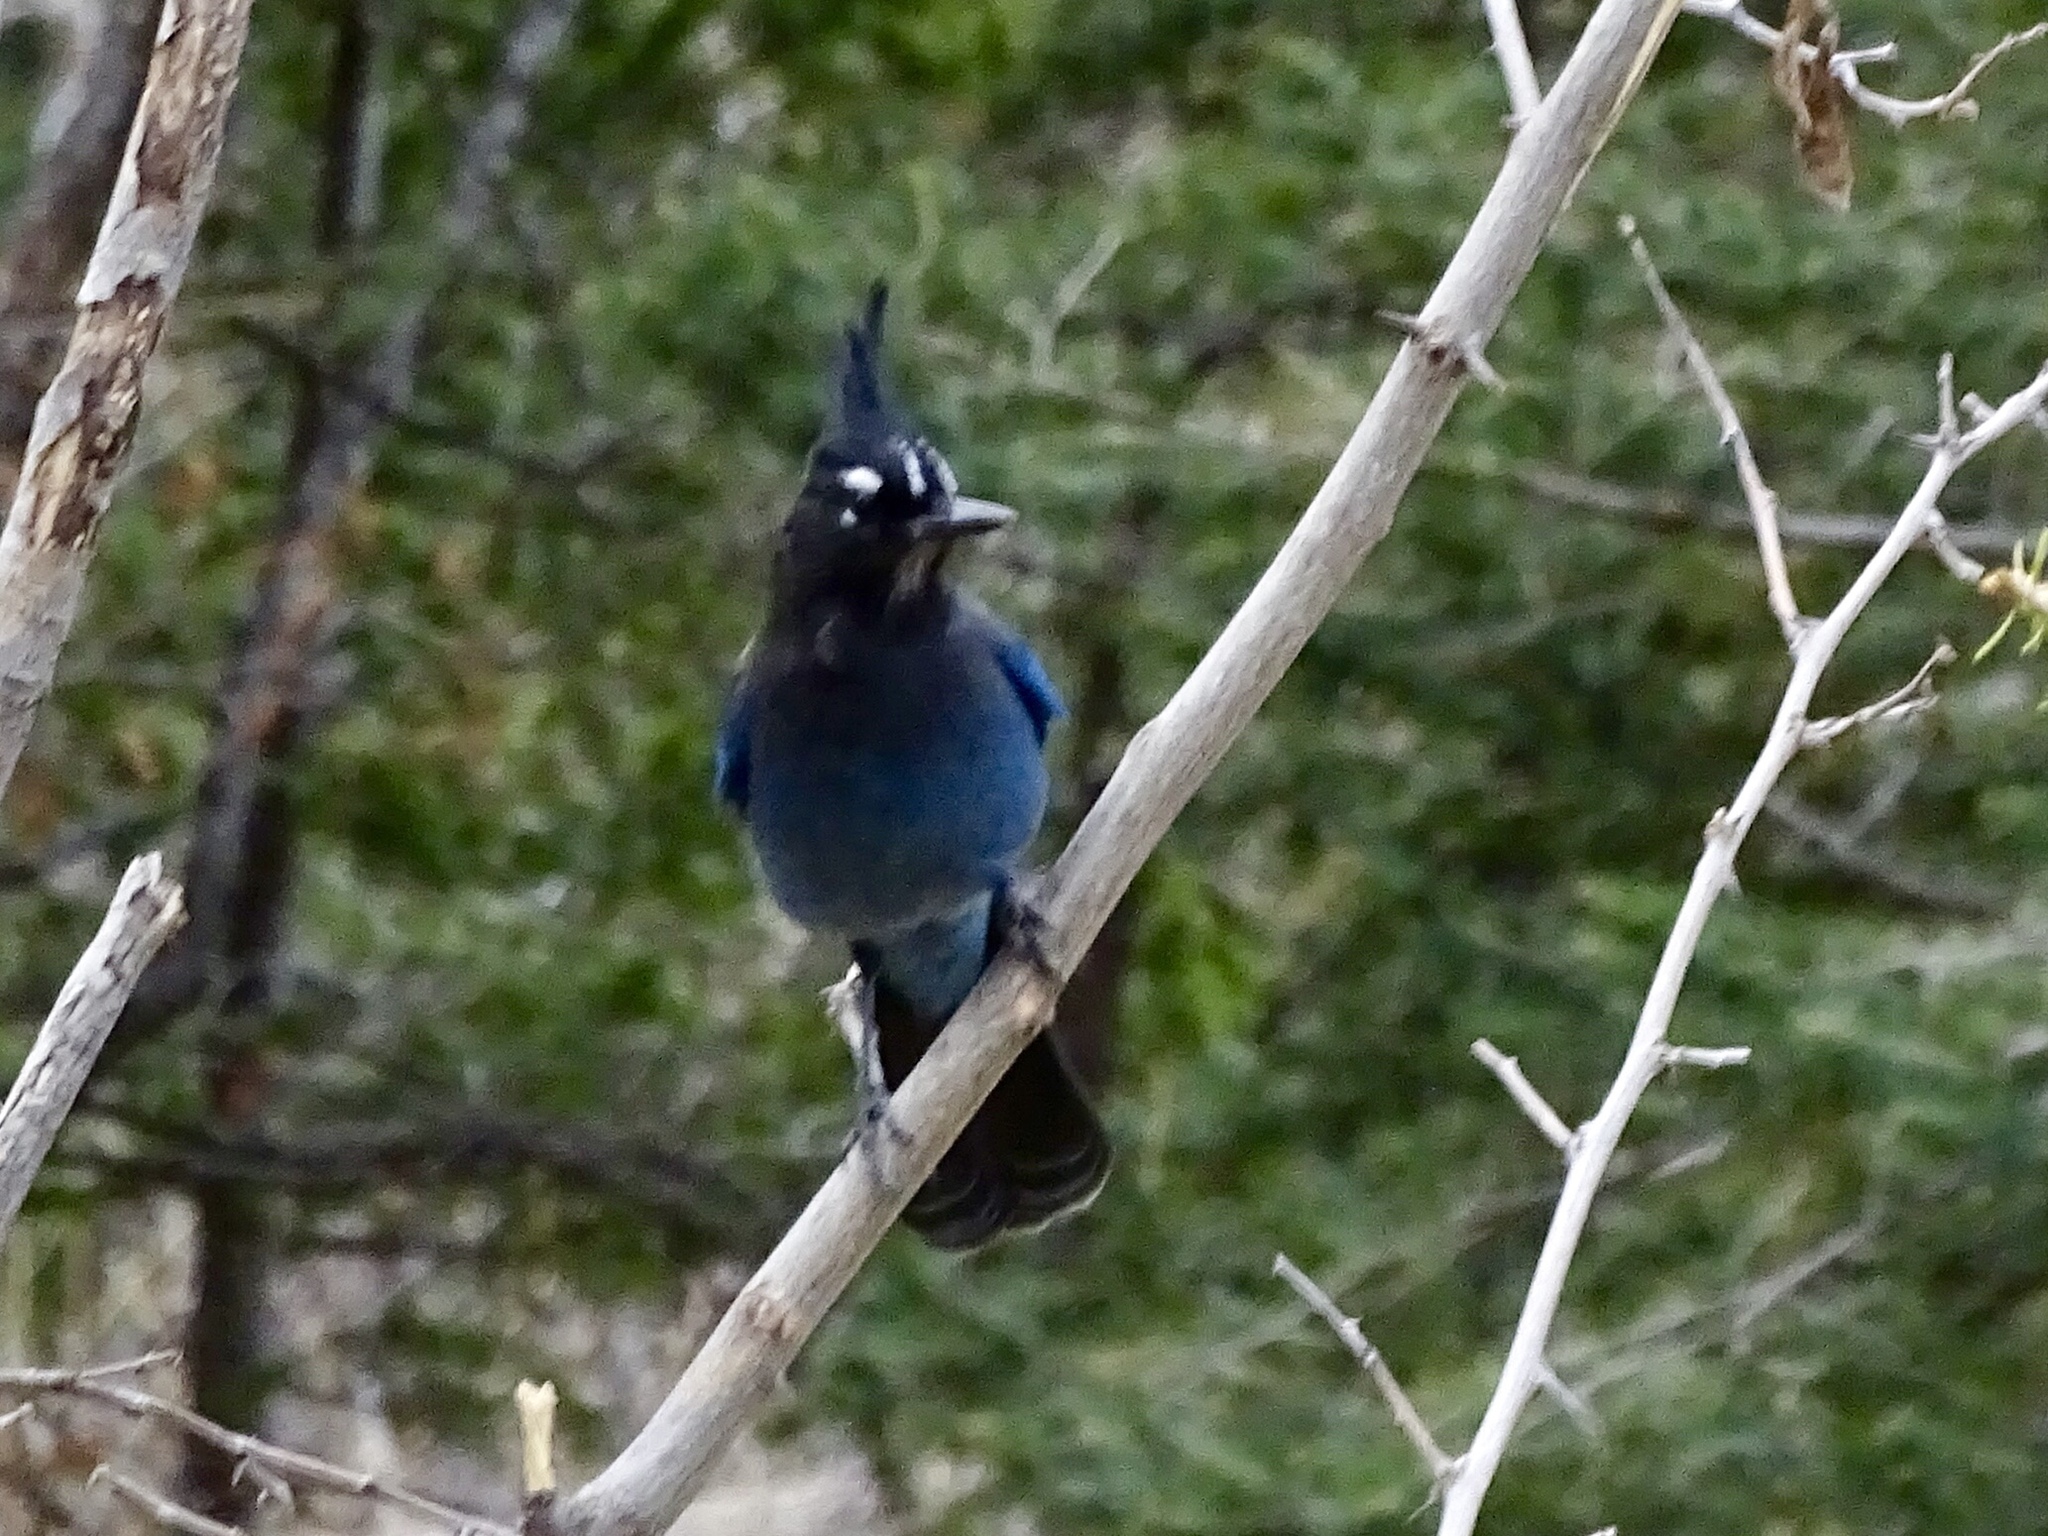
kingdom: Animalia
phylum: Chordata
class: Aves
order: Passeriformes
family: Corvidae
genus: Cyanocitta
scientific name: Cyanocitta stelleri
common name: Steller's jay
